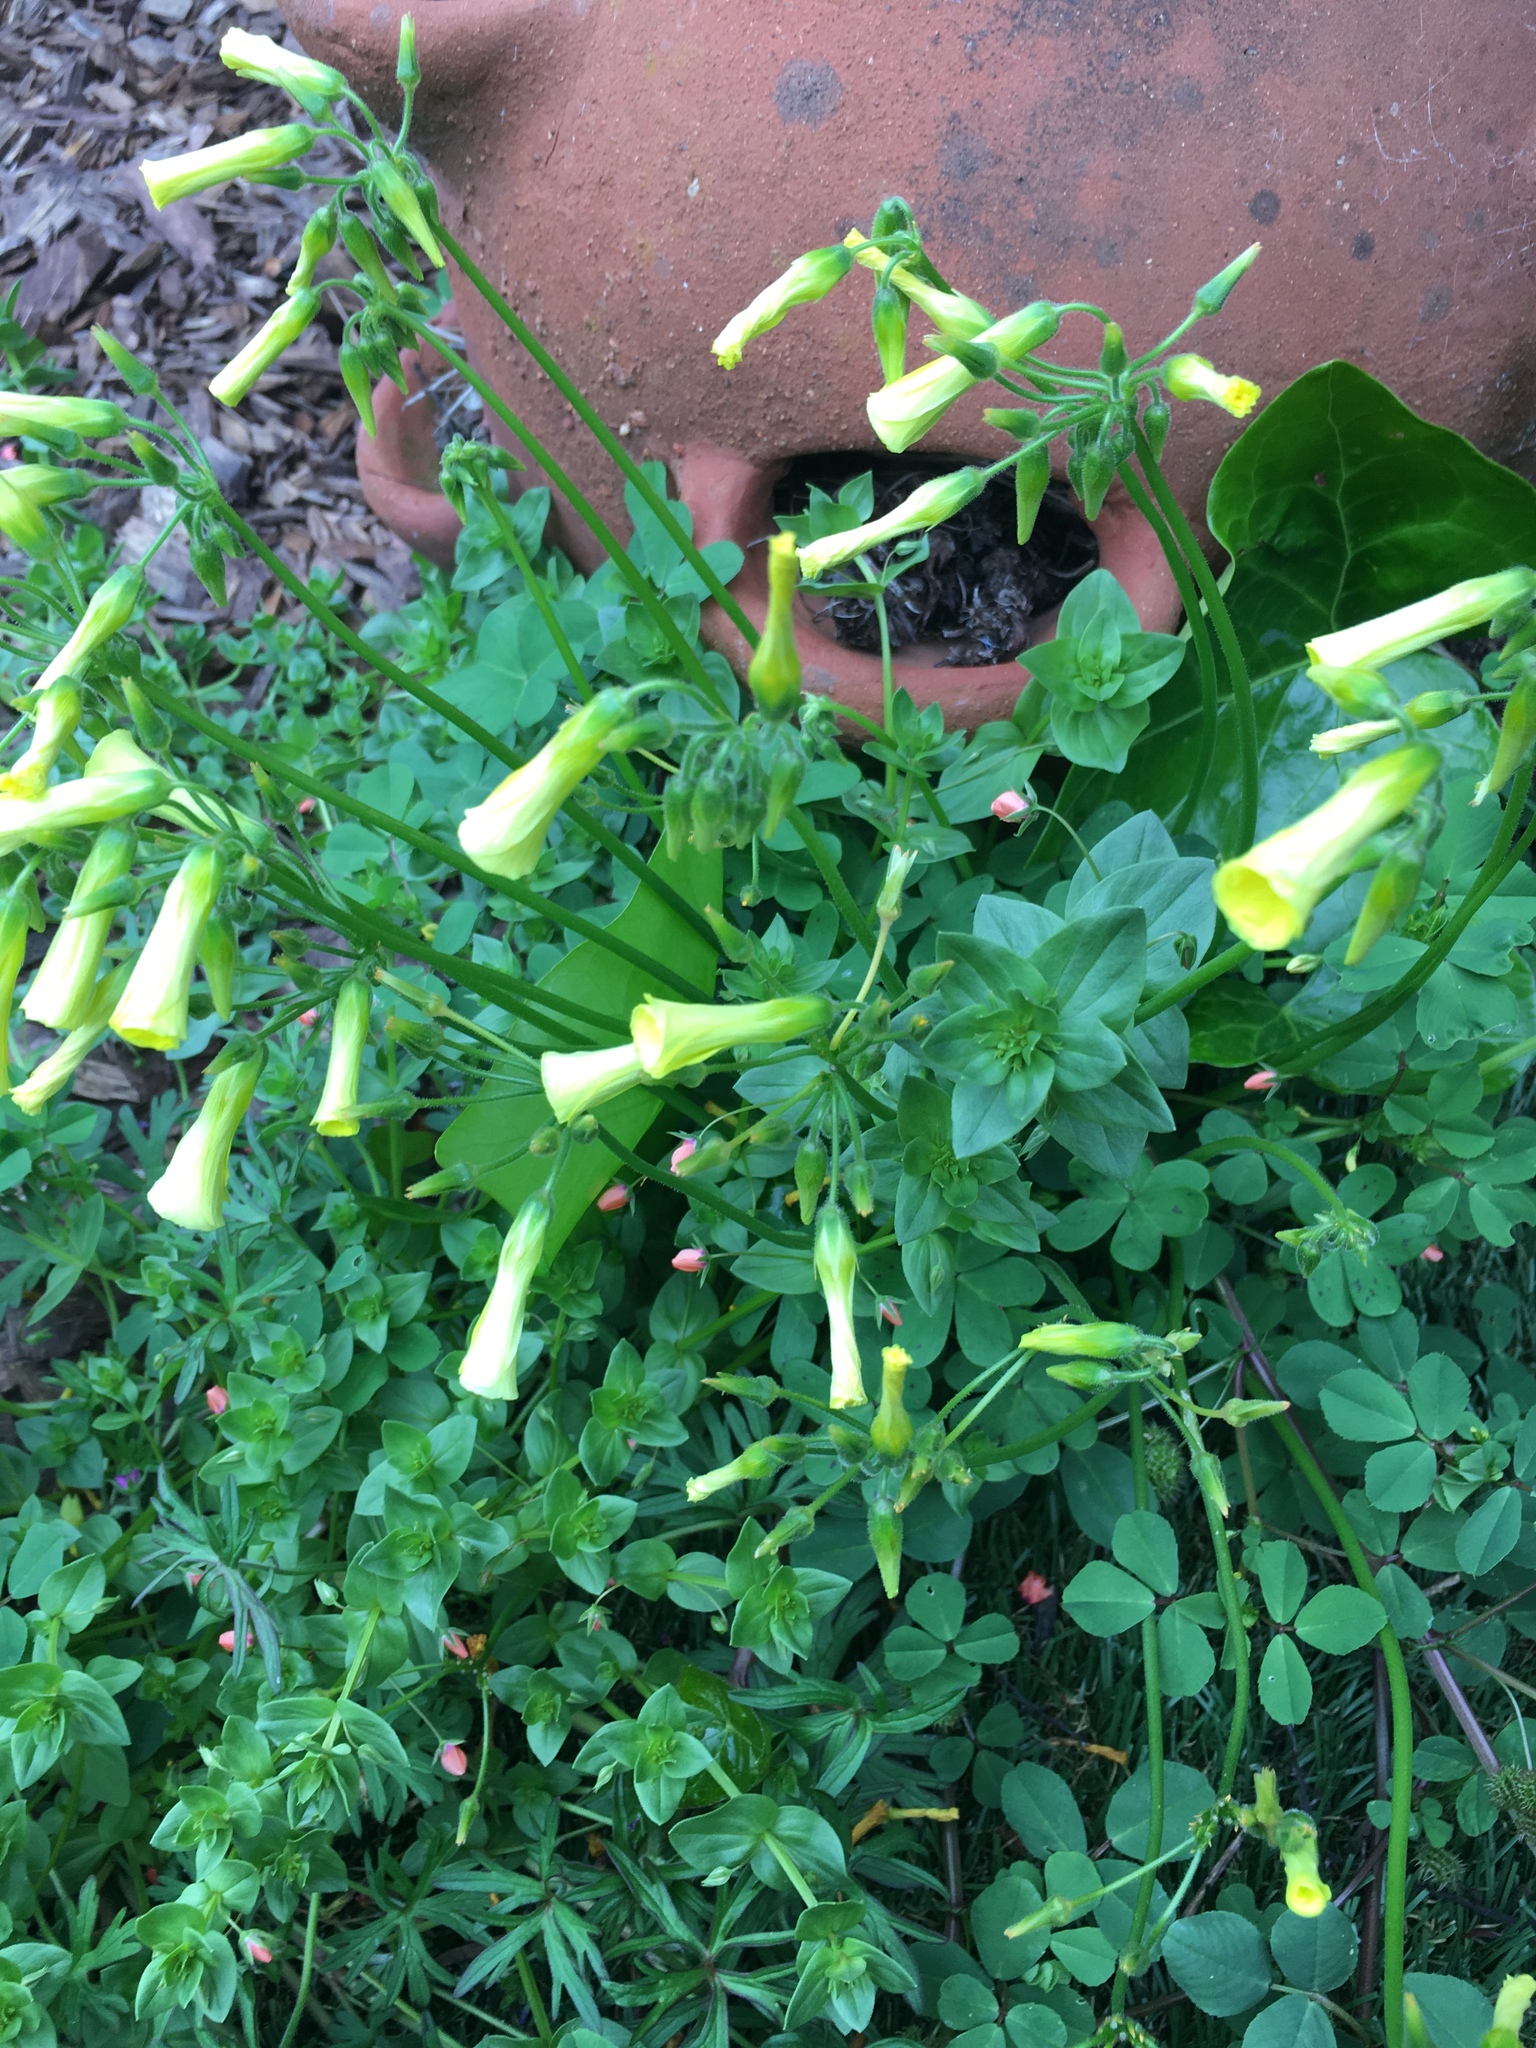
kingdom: Plantae
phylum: Tracheophyta
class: Magnoliopsida
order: Oxalidales
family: Oxalidaceae
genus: Oxalis
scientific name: Oxalis pes-caprae
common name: Bermuda-buttercup
